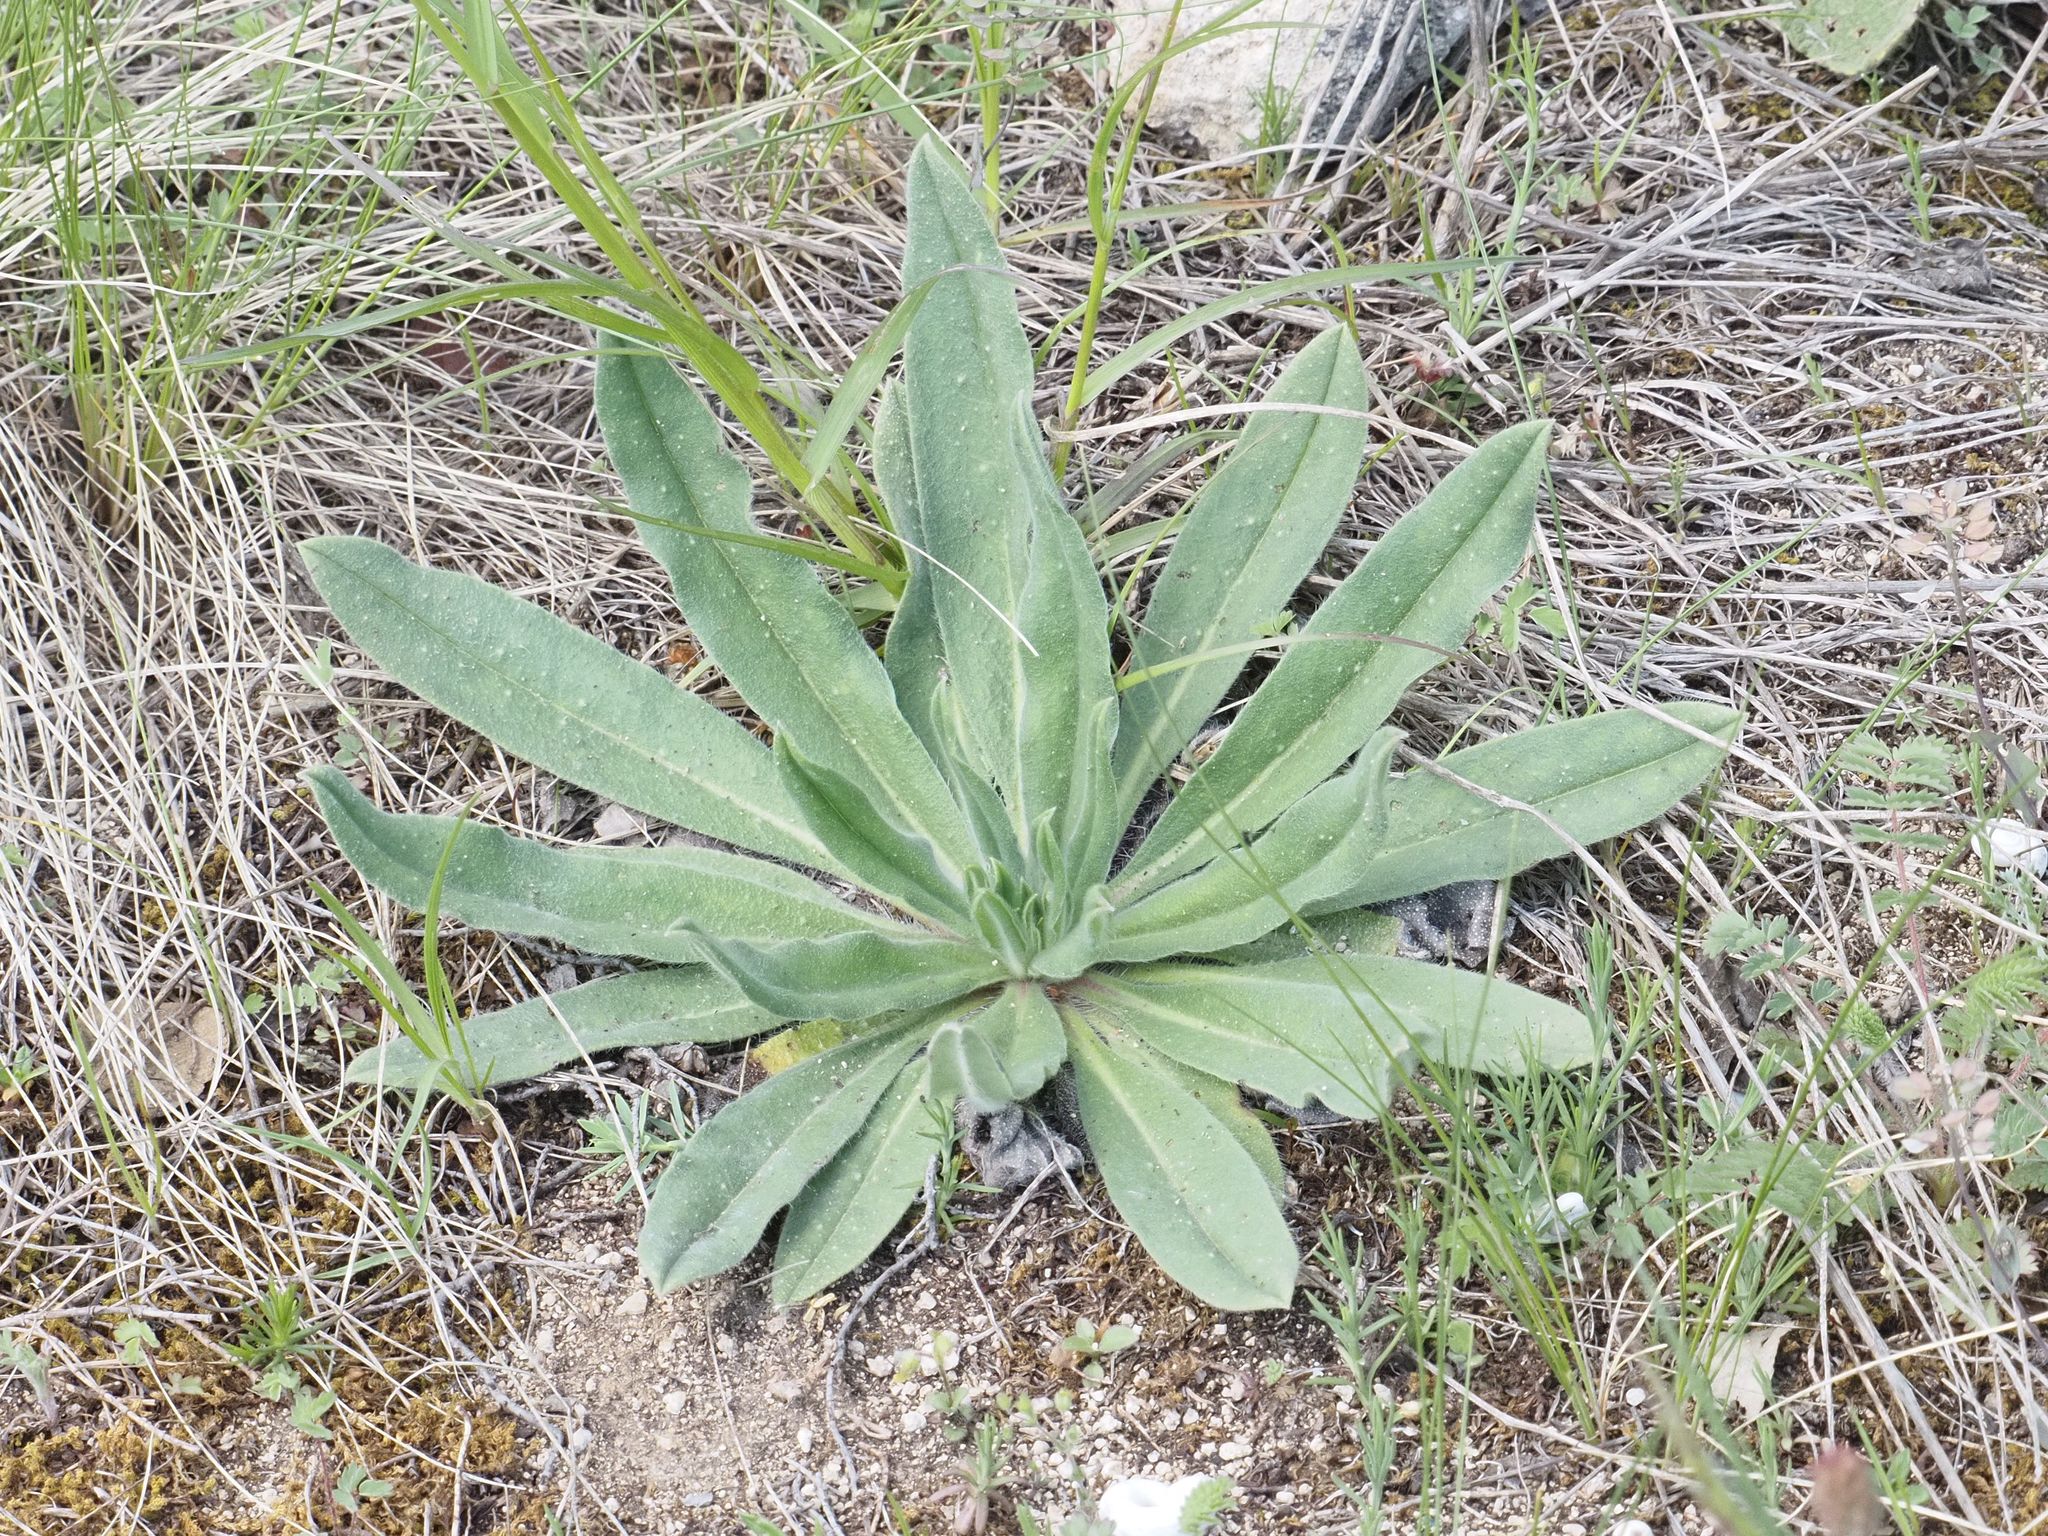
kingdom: Plantae
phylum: Tracheophyta
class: Magnoliopsida
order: Boraginales
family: Boraginaceae
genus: Echium
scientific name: Echium vulgare
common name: Common viper's bugloss
